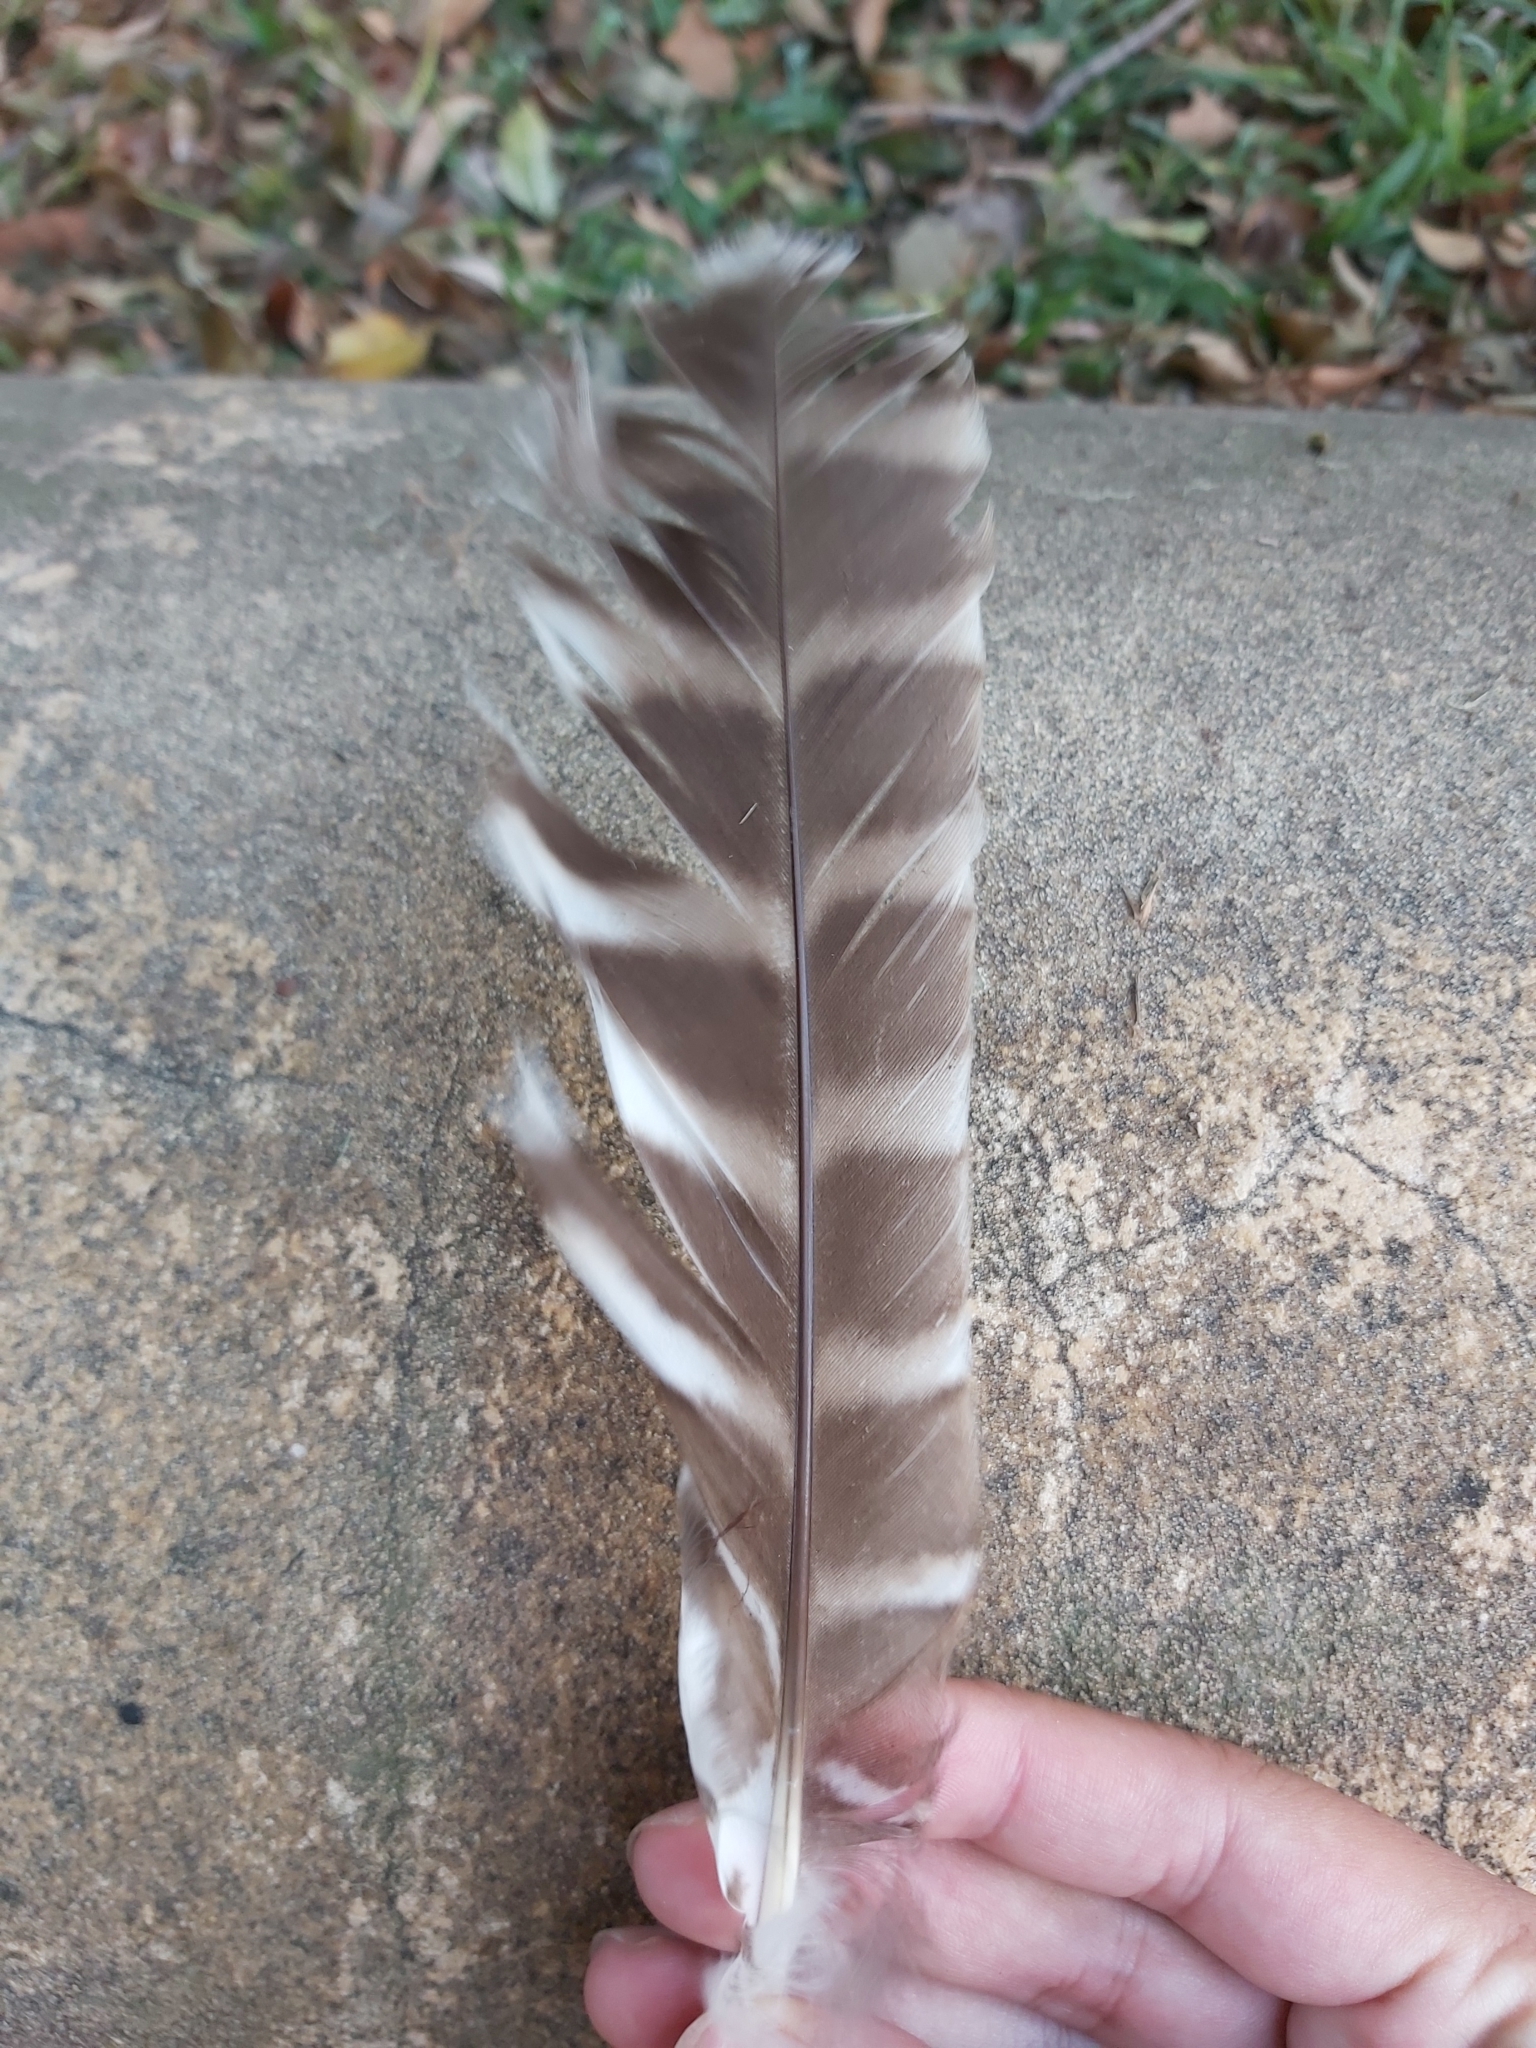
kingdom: Animalia
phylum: Chordata
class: Aves
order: Strigiformes
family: Strigidae
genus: Ninox
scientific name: Ninox strenua
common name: Powerful owl
